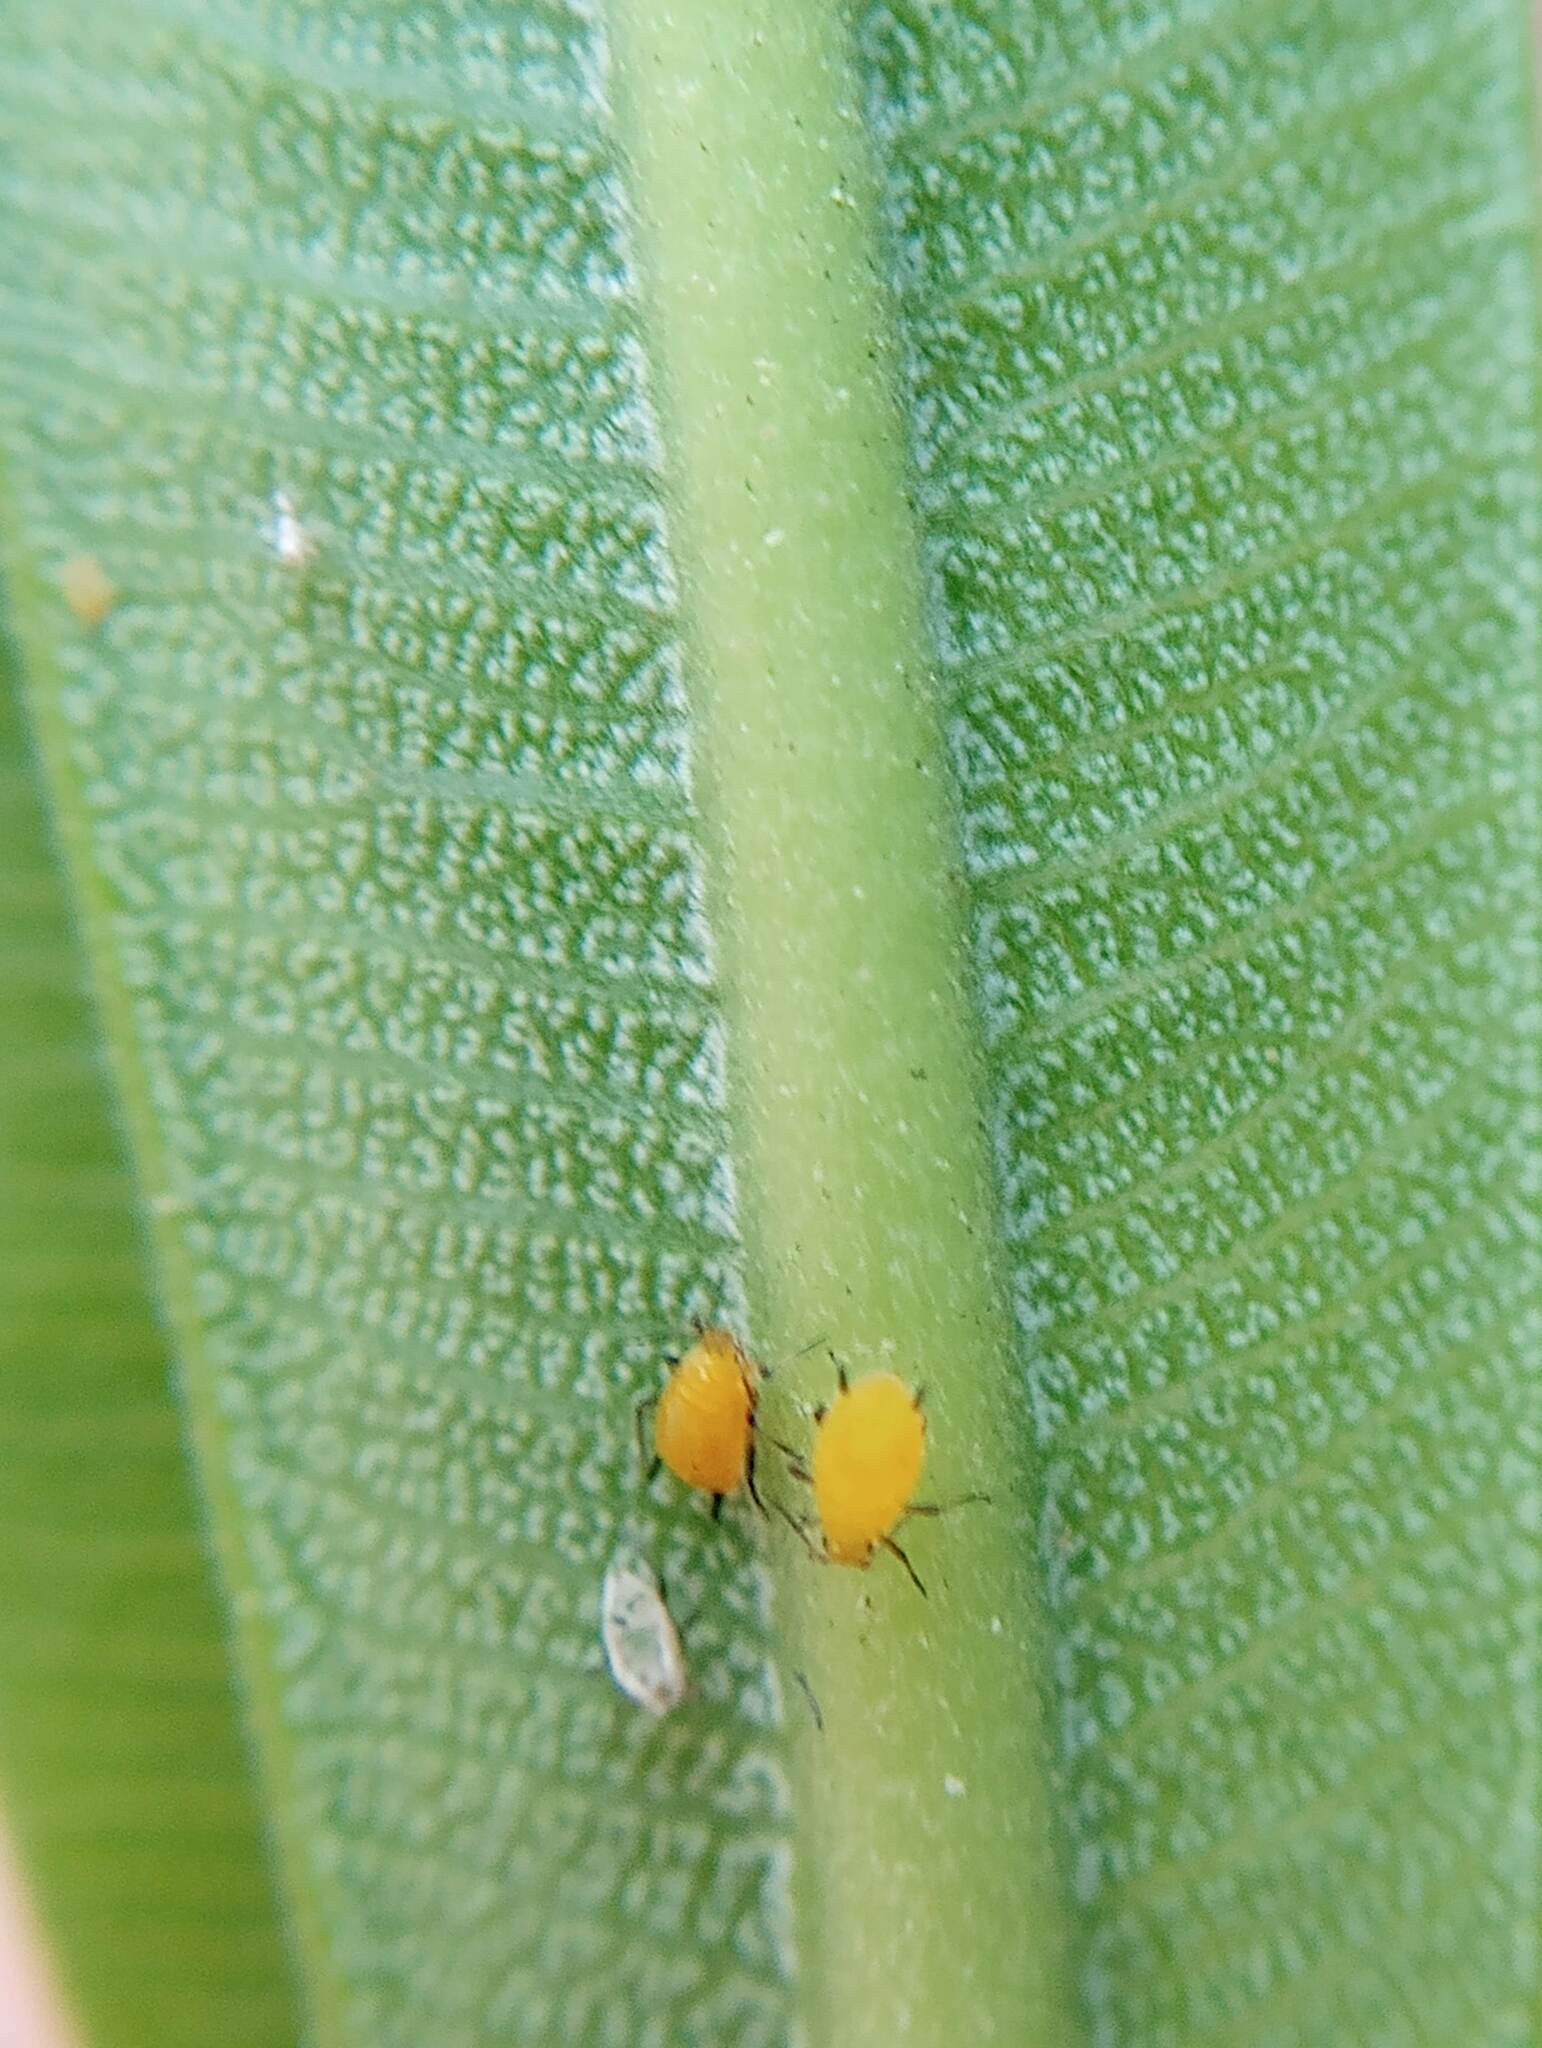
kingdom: Animalia
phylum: Arthropoda
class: Insecta
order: Hemiptera
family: Aphididae
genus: Aphis
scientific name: Aphis nerii
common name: Oleander aphid
